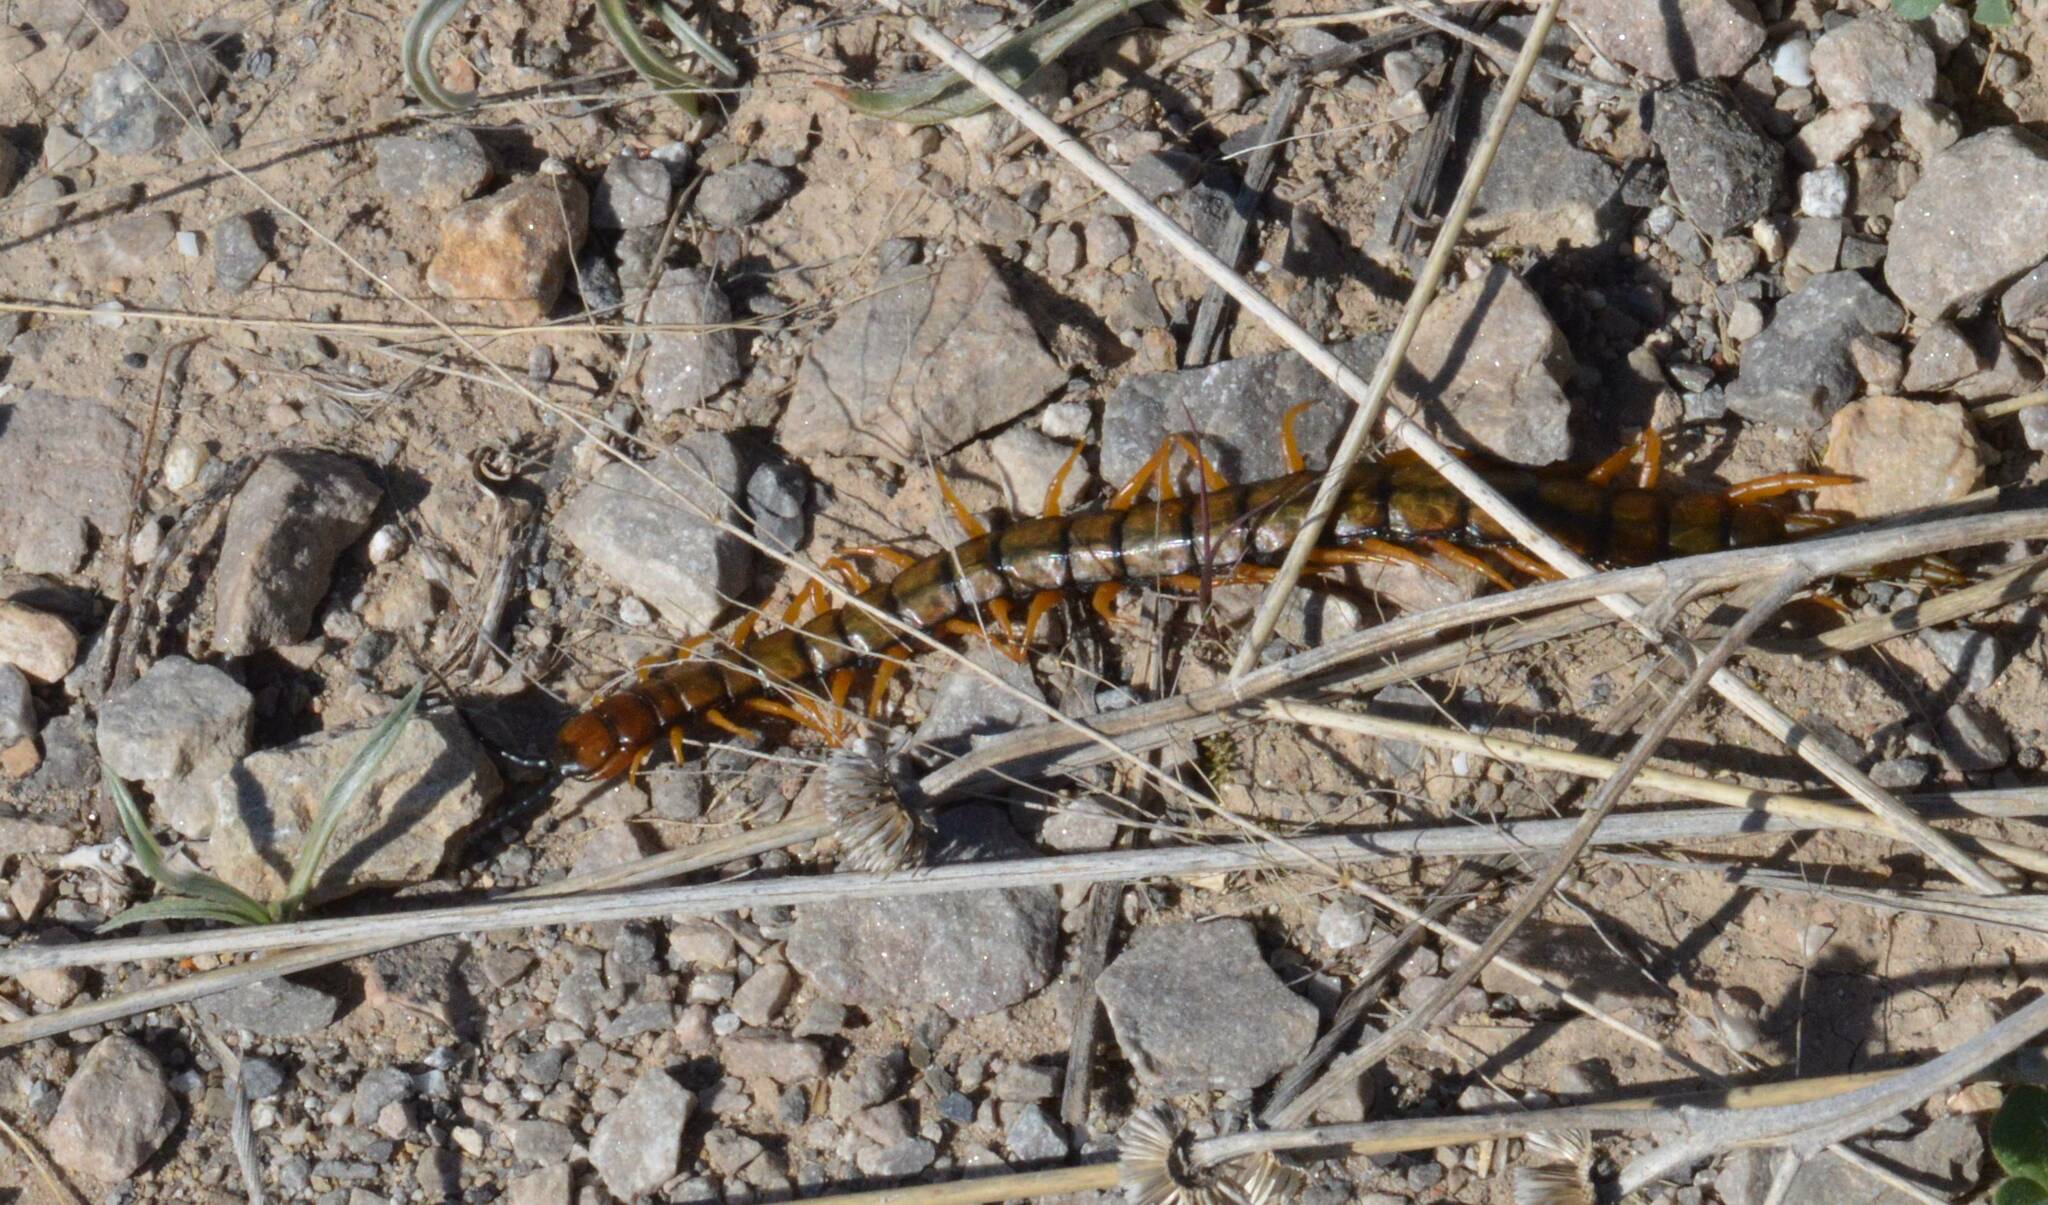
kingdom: Animalia
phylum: Arthropoda
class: Chilopoda
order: Scolopendromorpha
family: Scolopendridae
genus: Scolopendra
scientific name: Scolopendra cingulata
